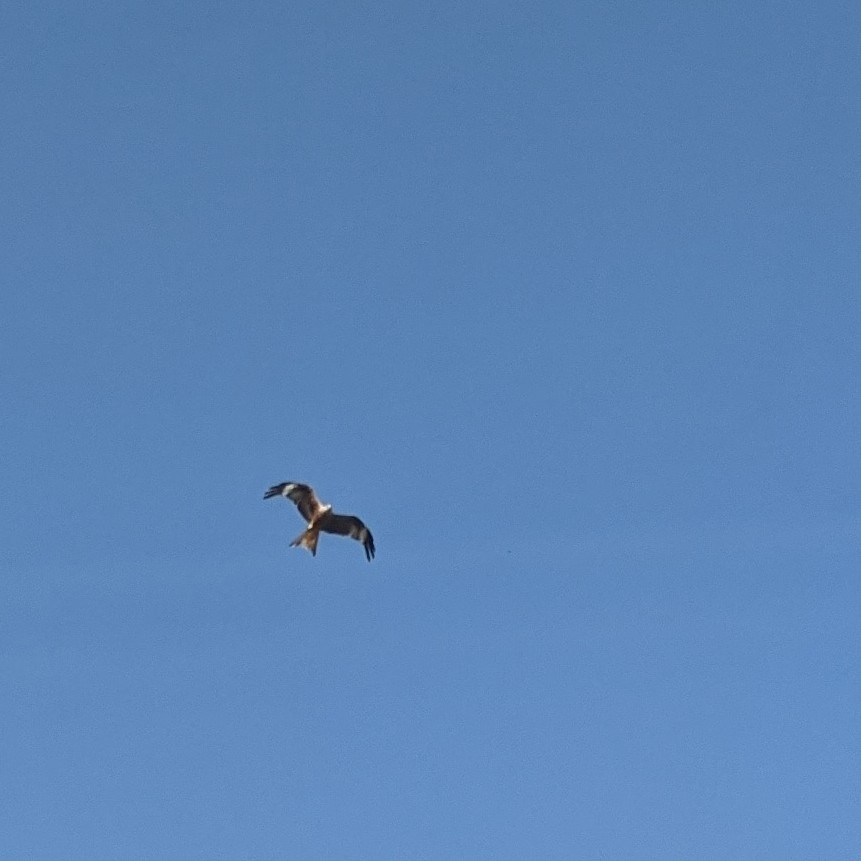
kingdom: Animalia
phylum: Chordata
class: Aves
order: Accipitriformes
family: Accipitridae
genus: Milvus
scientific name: Milvus milvus
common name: Red kite
